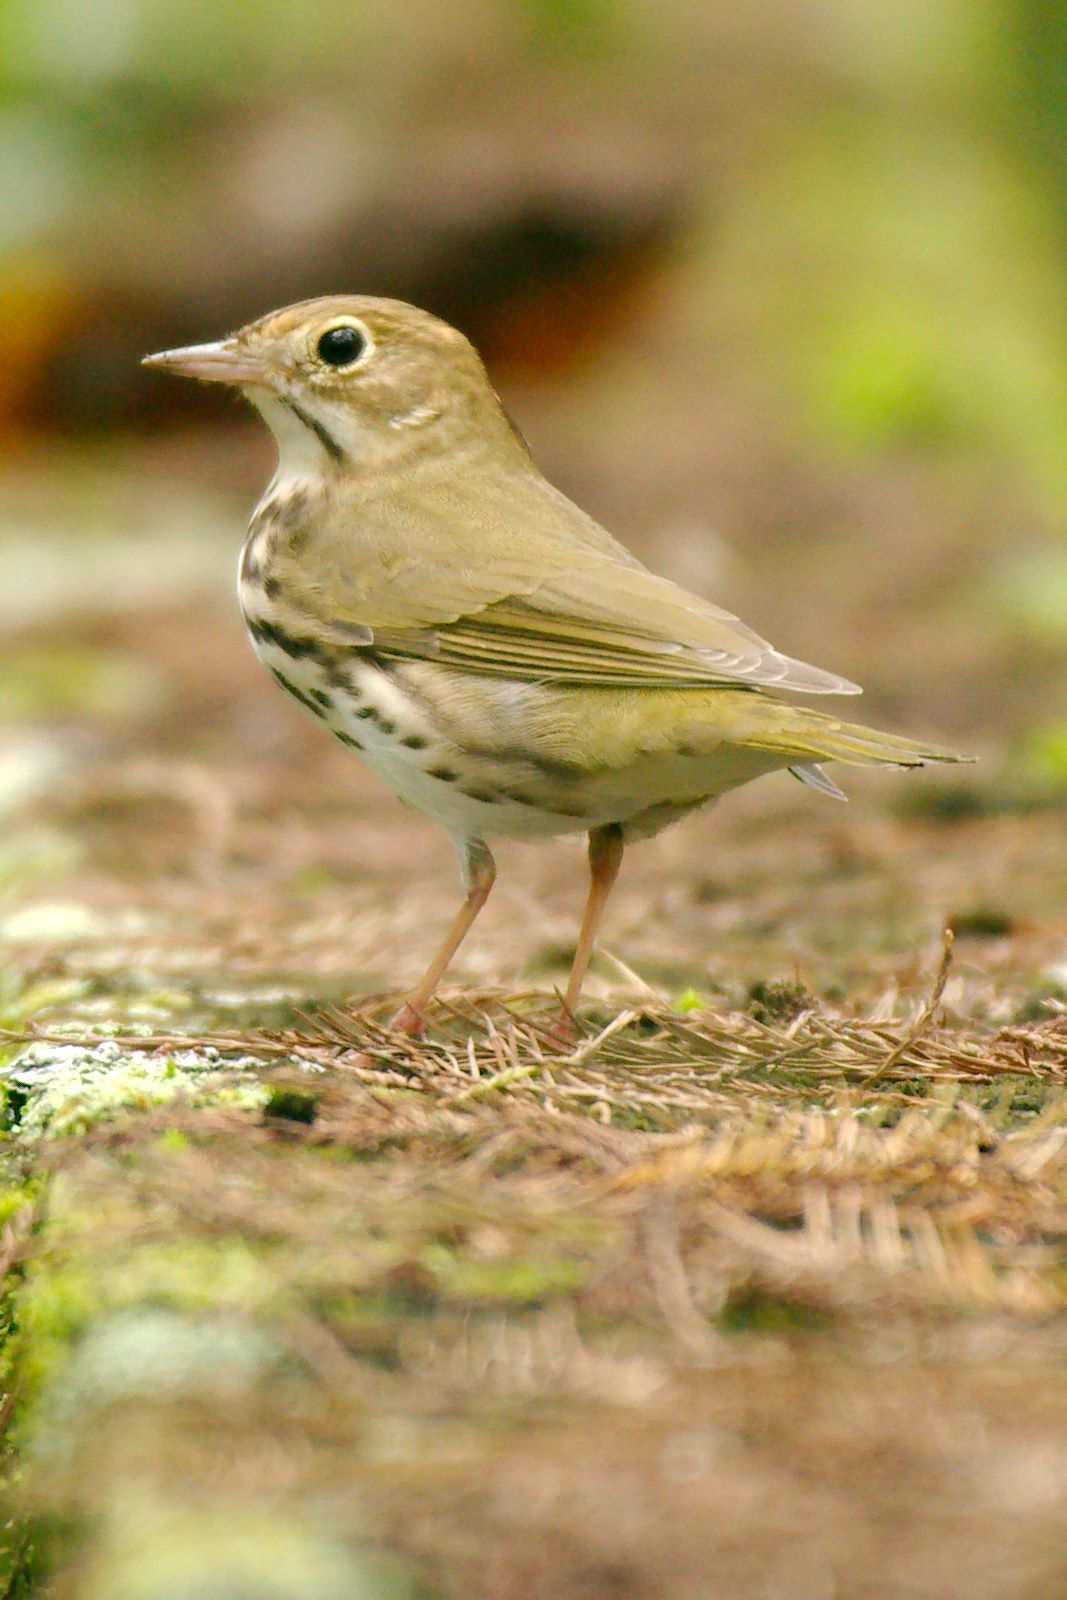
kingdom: Animalia
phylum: Chordata
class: Aves
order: Passeriformes
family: Parulidae
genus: Seiurus
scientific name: Seiurus aurocapilla
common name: Ovenbird
